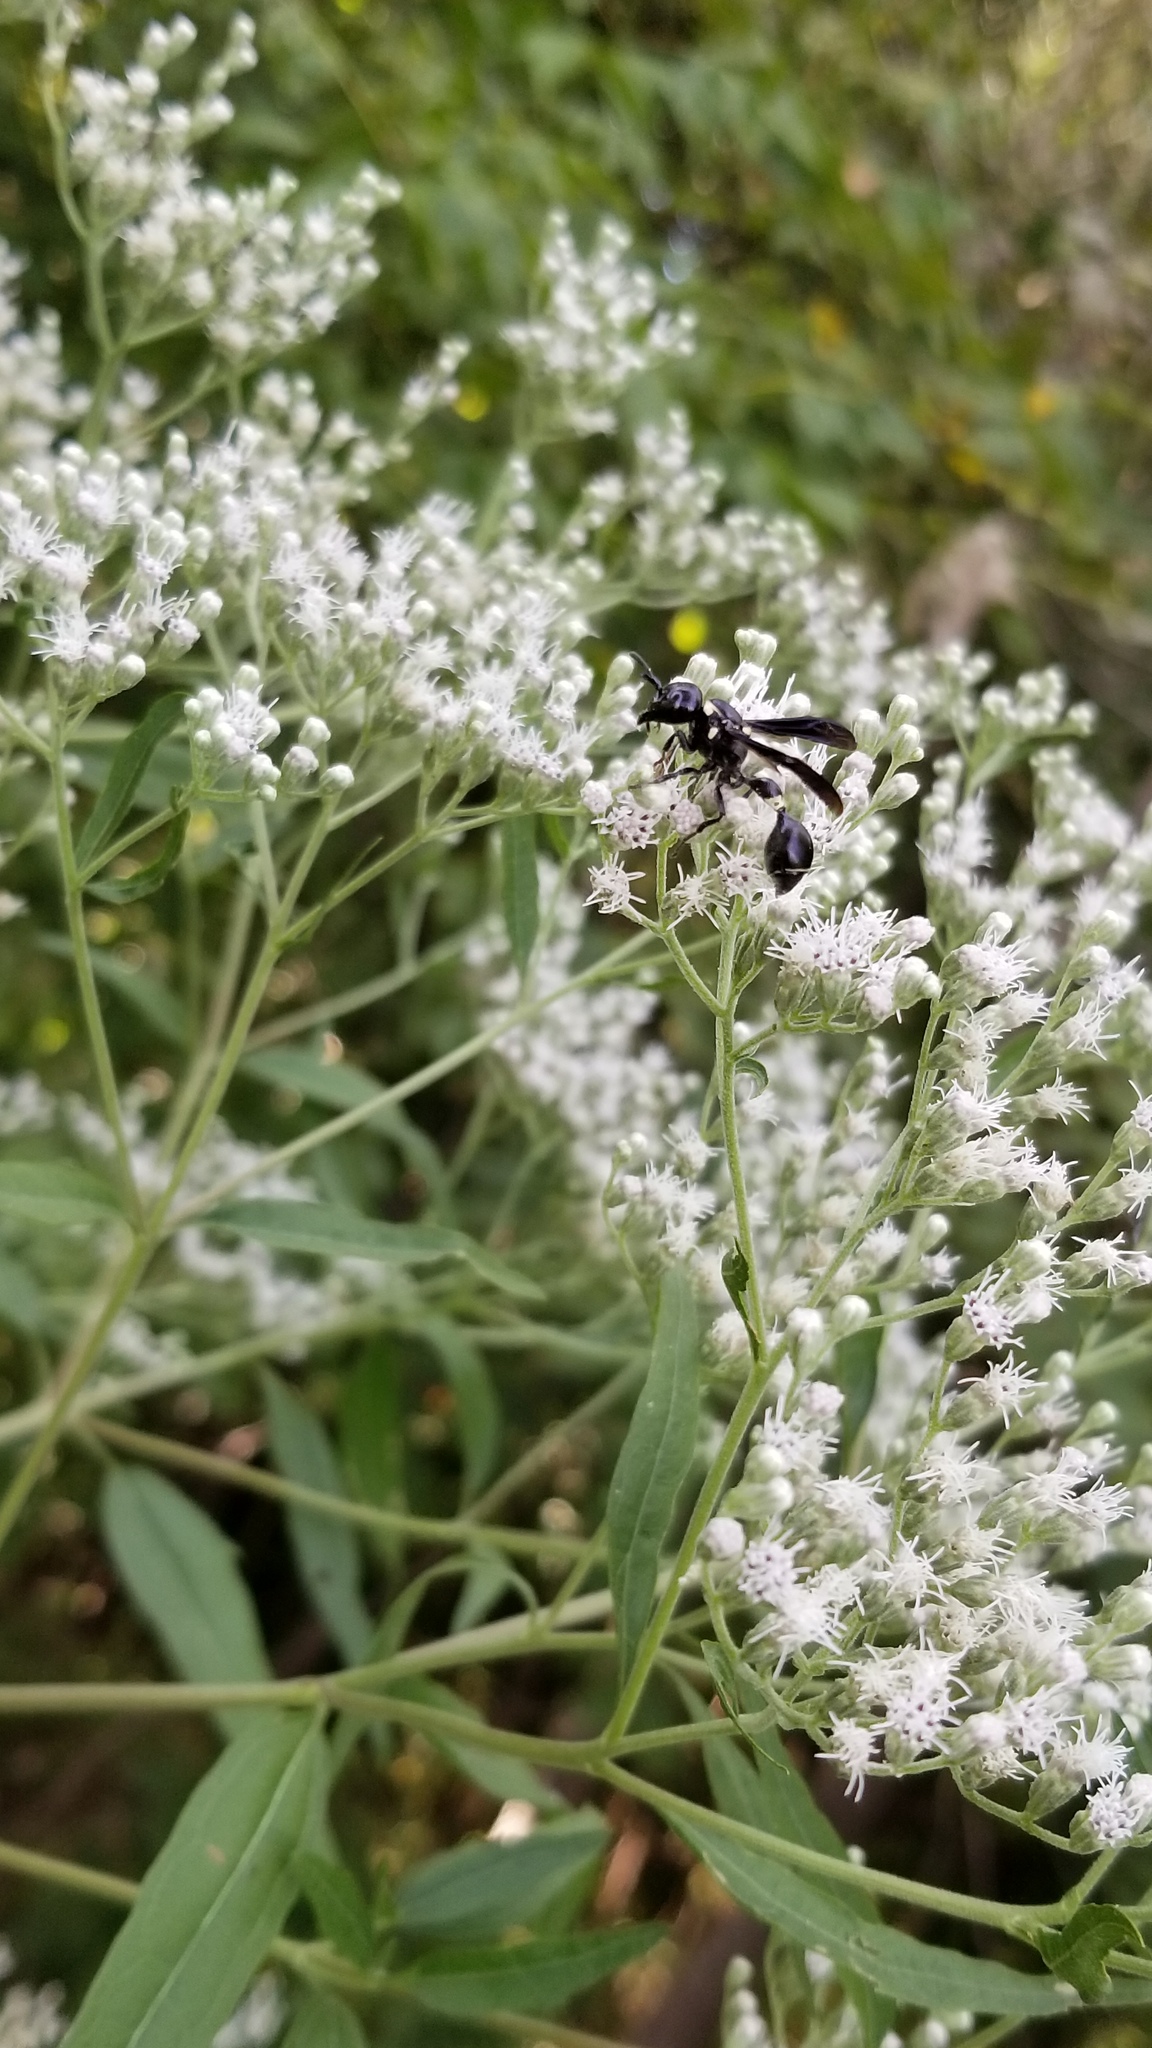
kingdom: Animalia
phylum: Arthropoda
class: Insecta
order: Hymenoptera
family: Eumenidae
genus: Zethus
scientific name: Zethus spinipes
